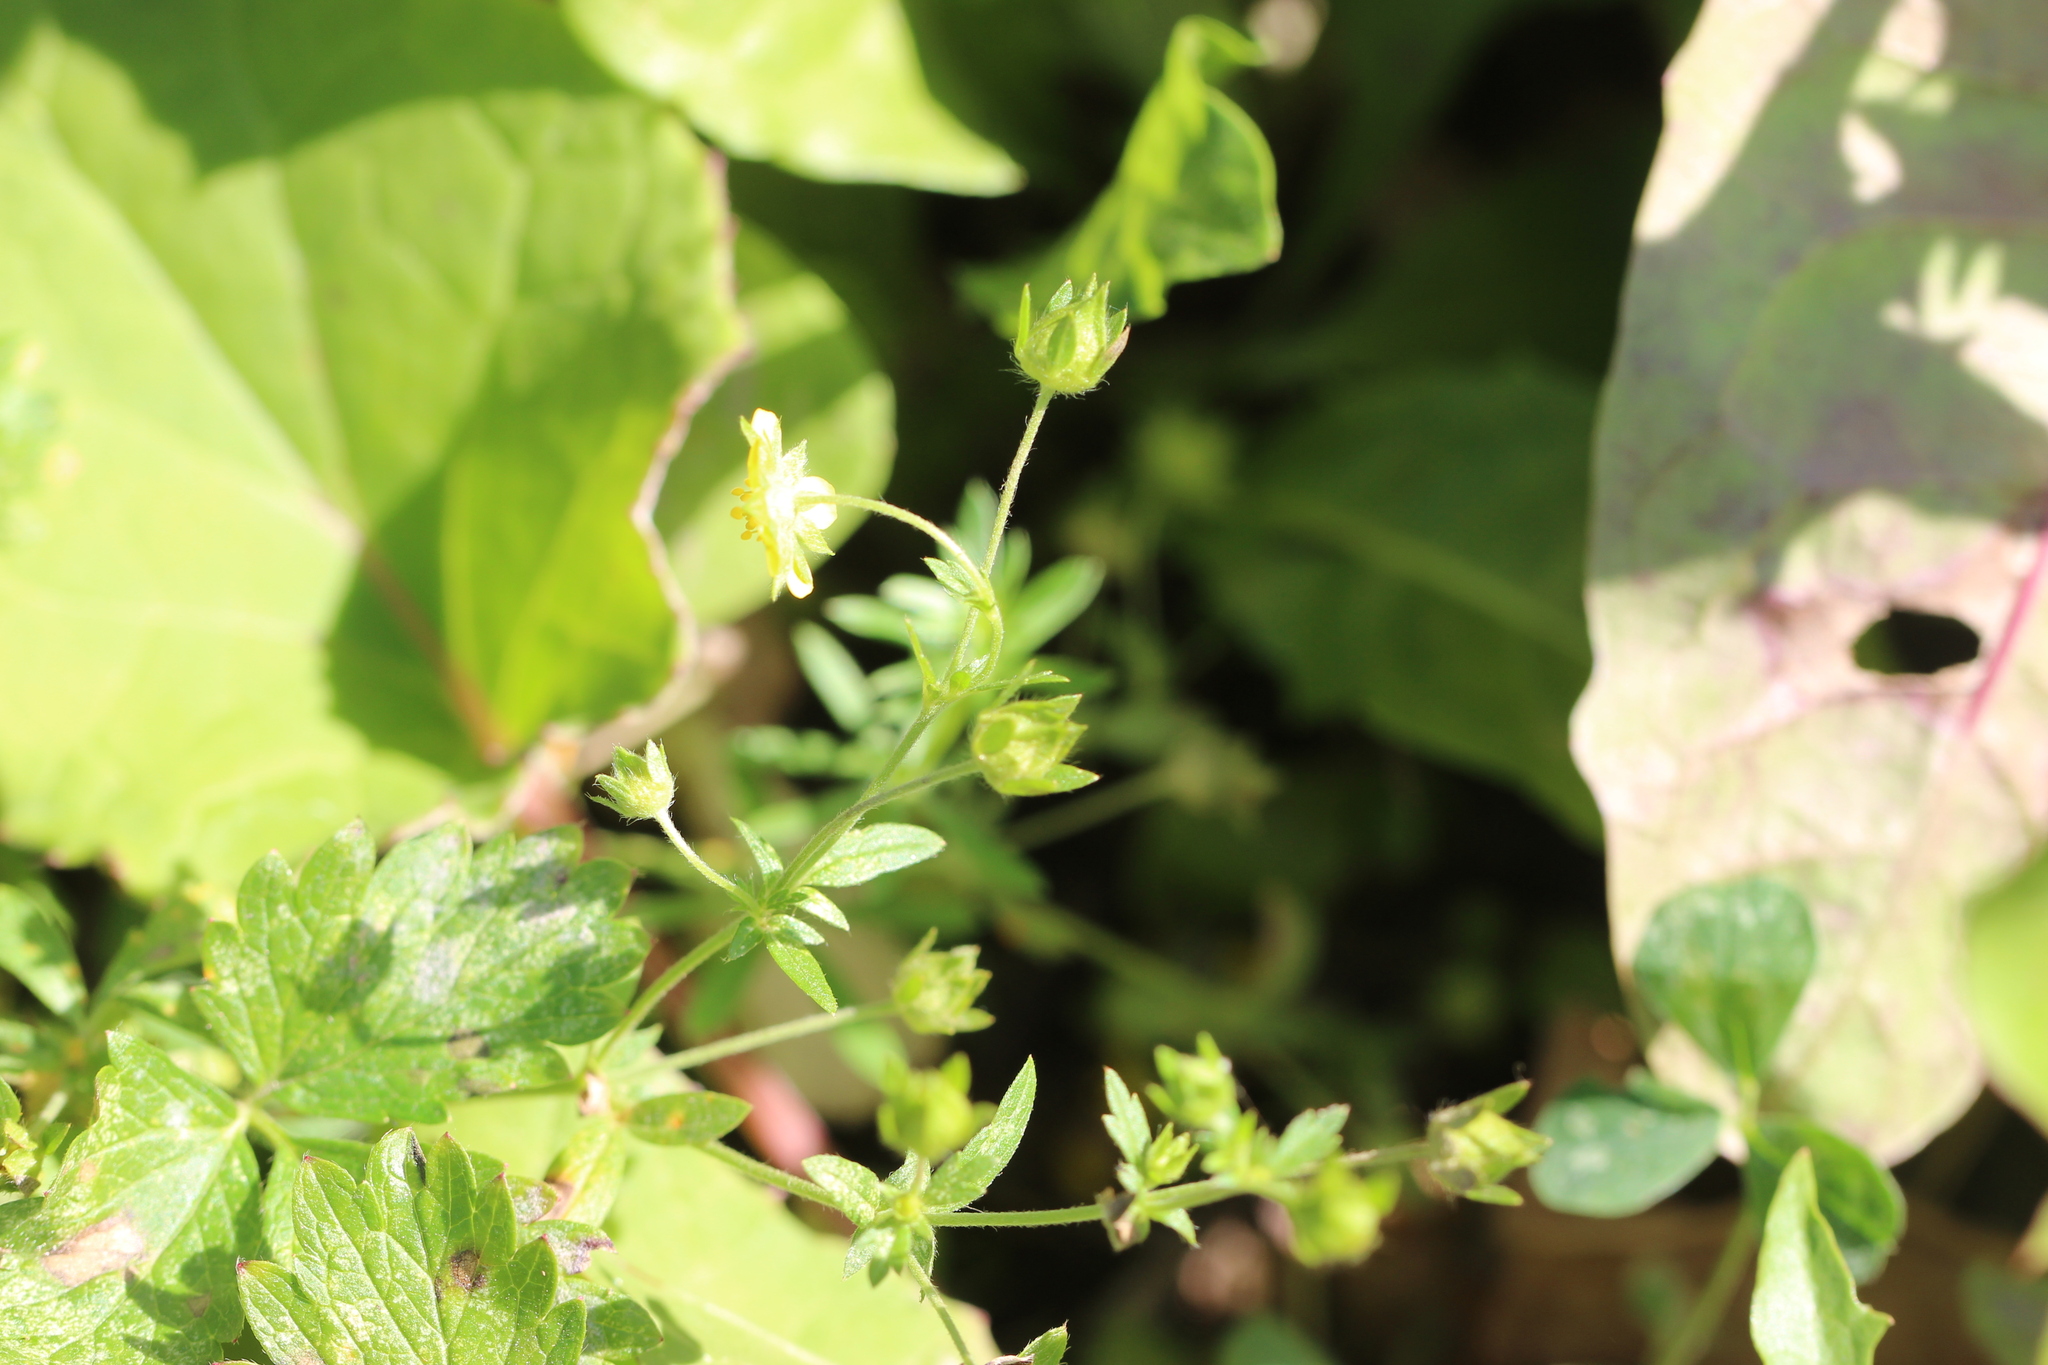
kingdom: Plantae
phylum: Tracheophyta
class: Magnoliopsida
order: Rosales
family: Rosaceae
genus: Potentilla
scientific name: Potentilla norvegica
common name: Ternate-leaved cinquefoil
